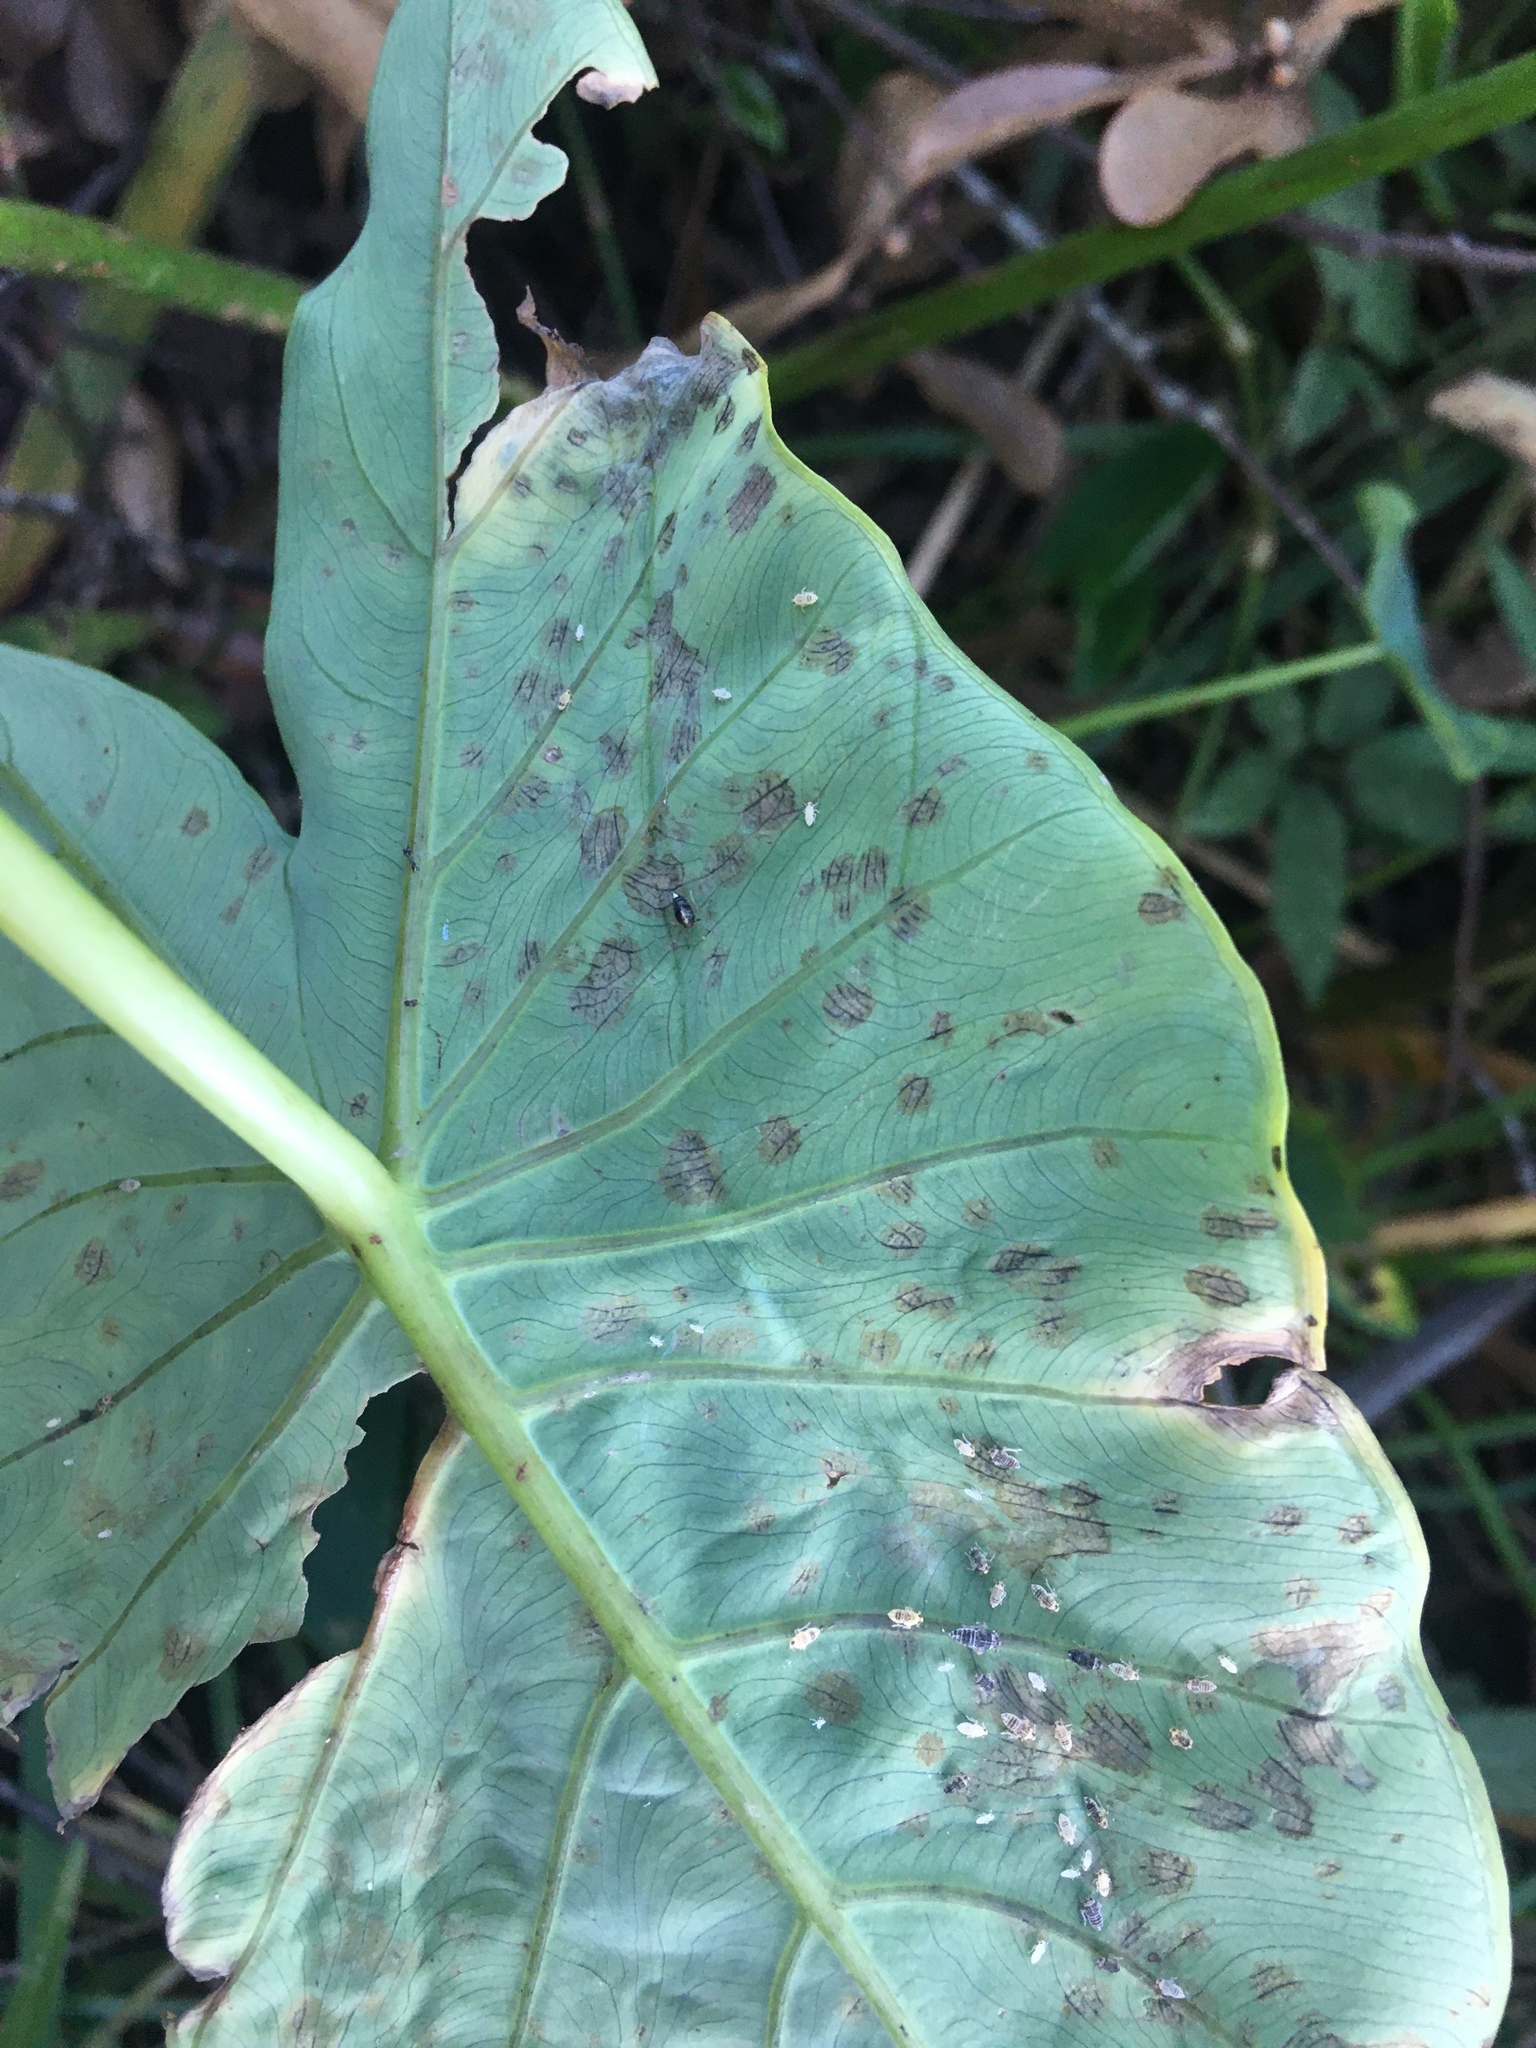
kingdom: Animalia
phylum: Arthropoda
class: Insecta
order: Hemiptera
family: Delphacidae
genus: Tarophagus
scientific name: Tarophagus colocasiae
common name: Taro planthopper
